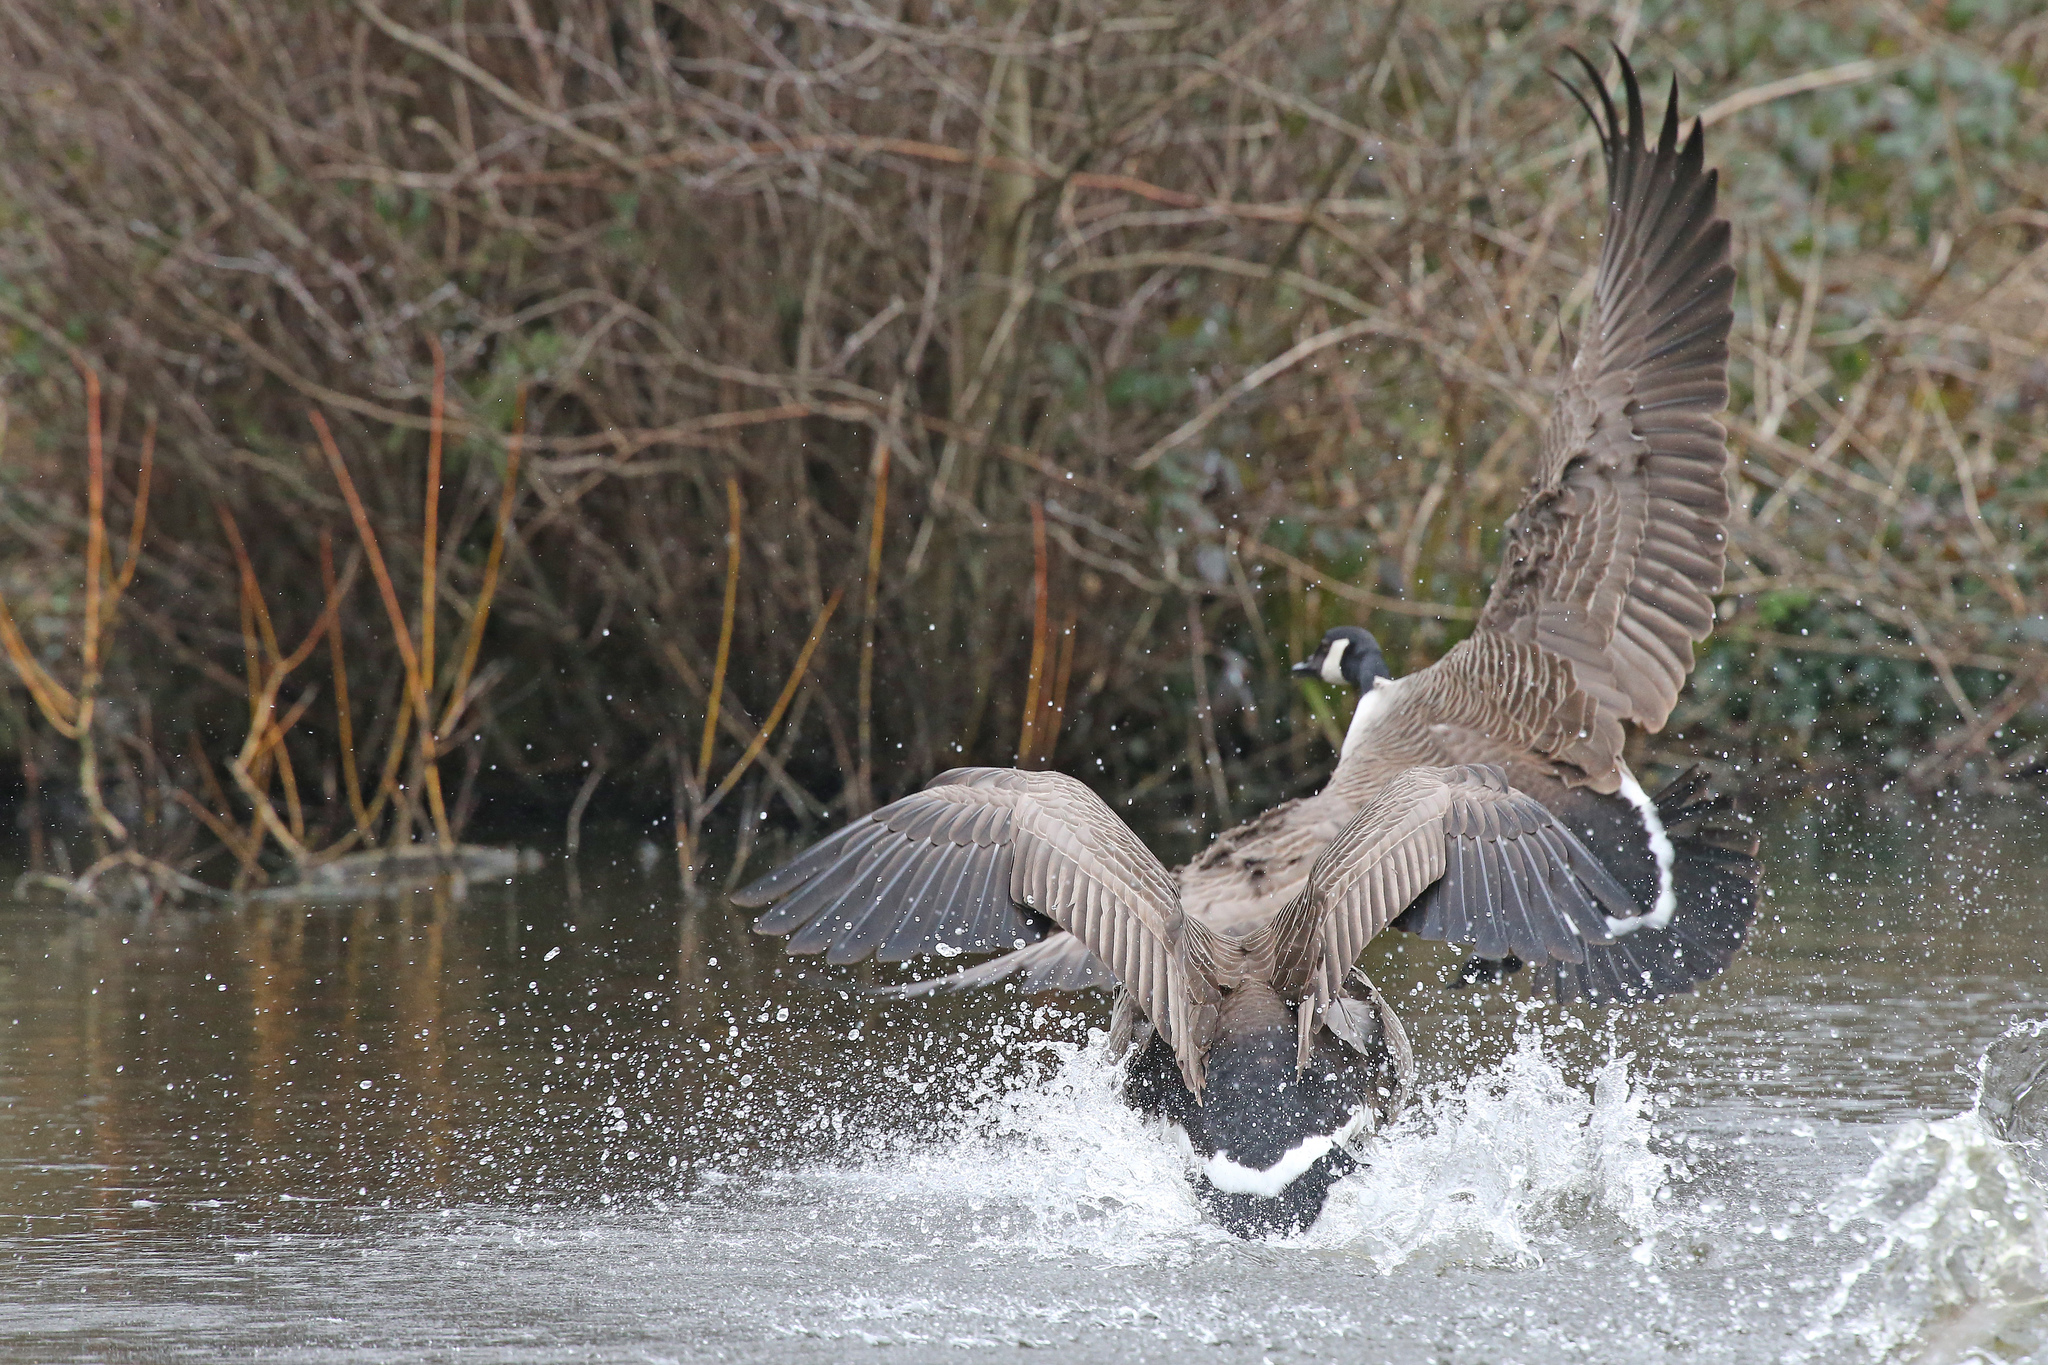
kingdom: Animalia
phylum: Chordata
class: Aves
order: Anseriformes
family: Anatidae
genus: Branta
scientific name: Branta canadensis
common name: Canada goose
